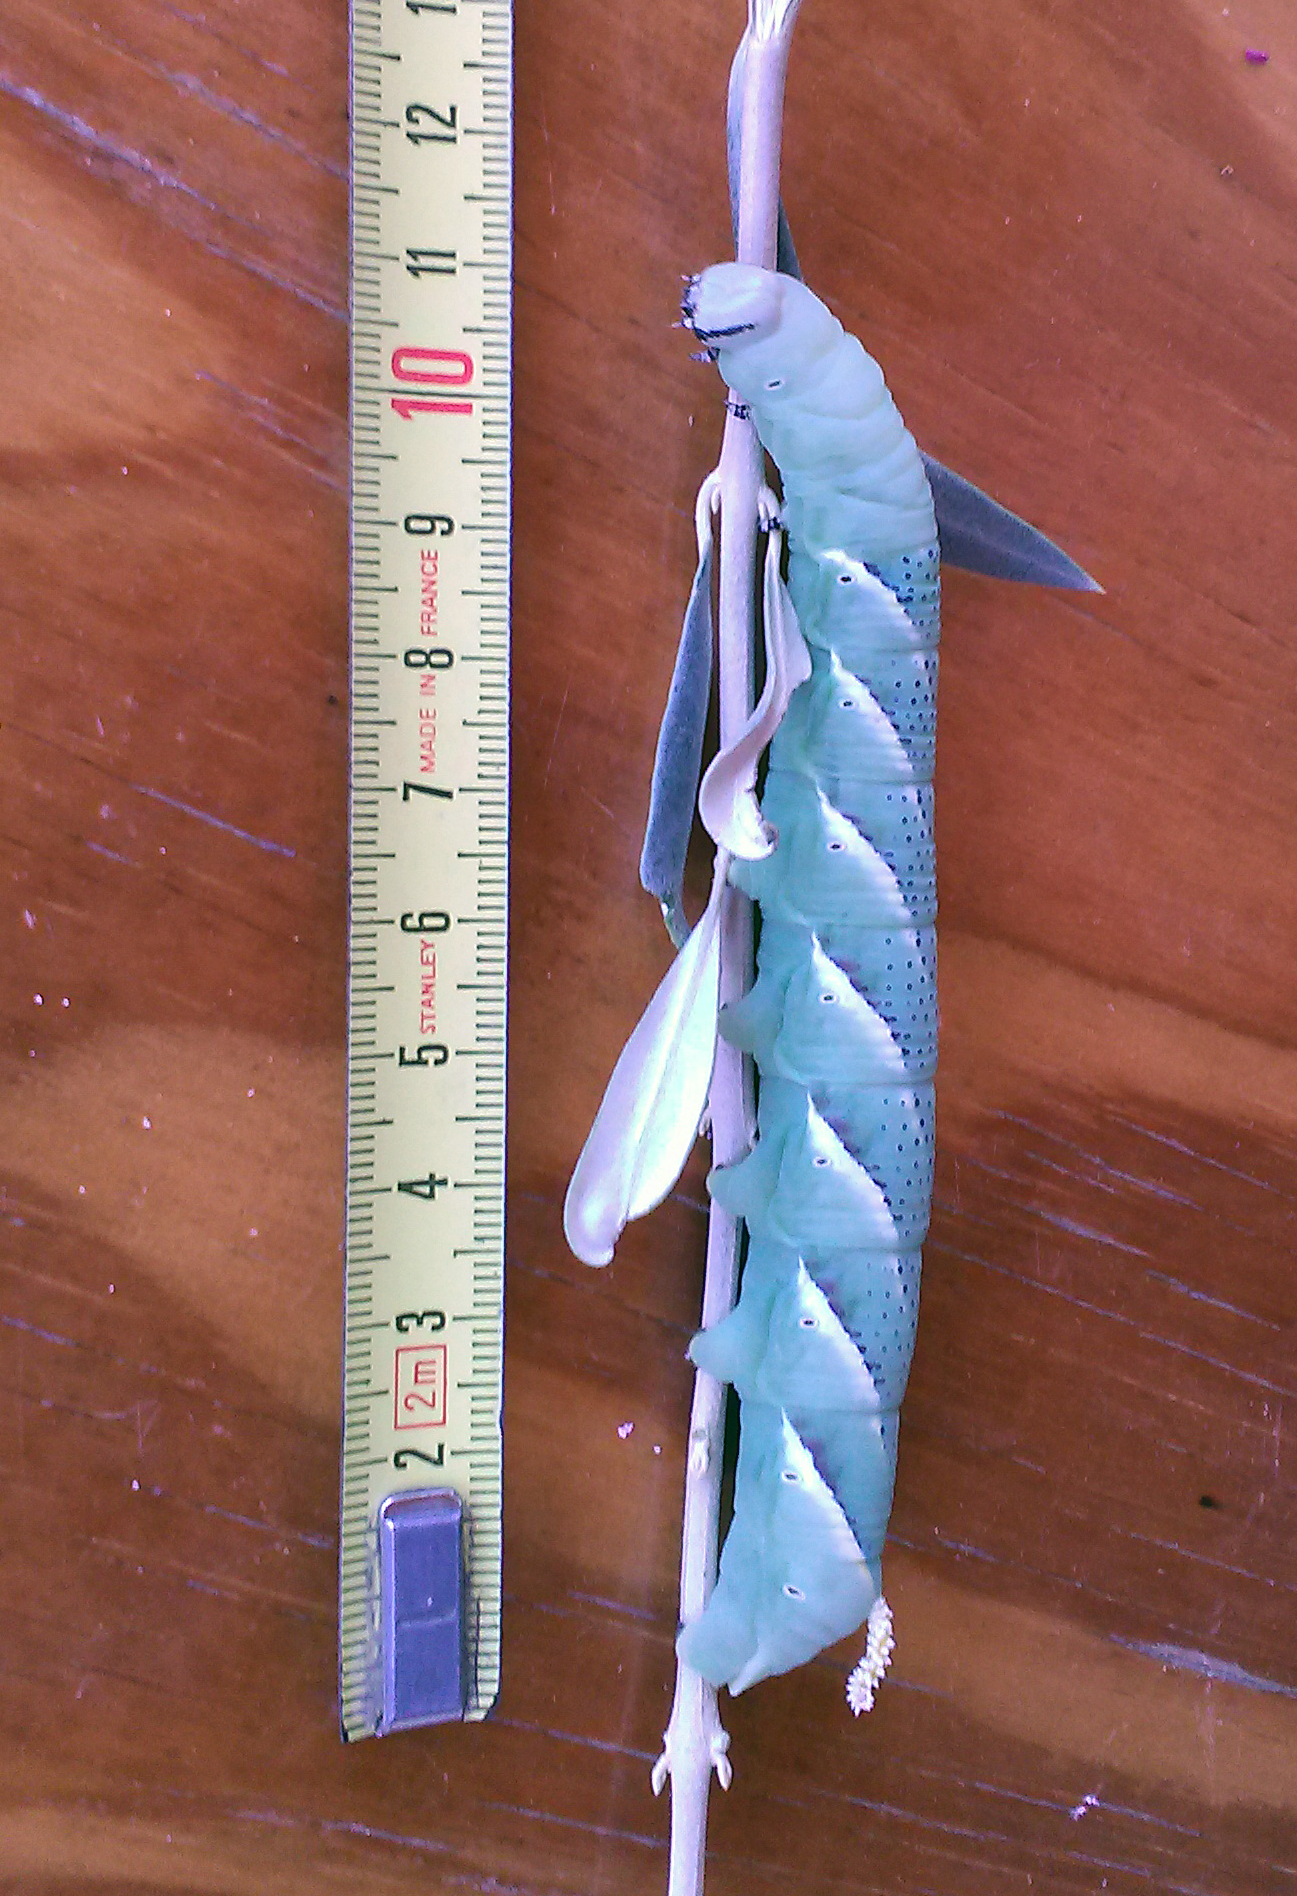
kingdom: Animalia
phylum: Arthropoda
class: Insecta
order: Lepidoptera
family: Sphingidae
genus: Acherontia
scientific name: Acherontia atropos
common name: Death's-head hawk moth
